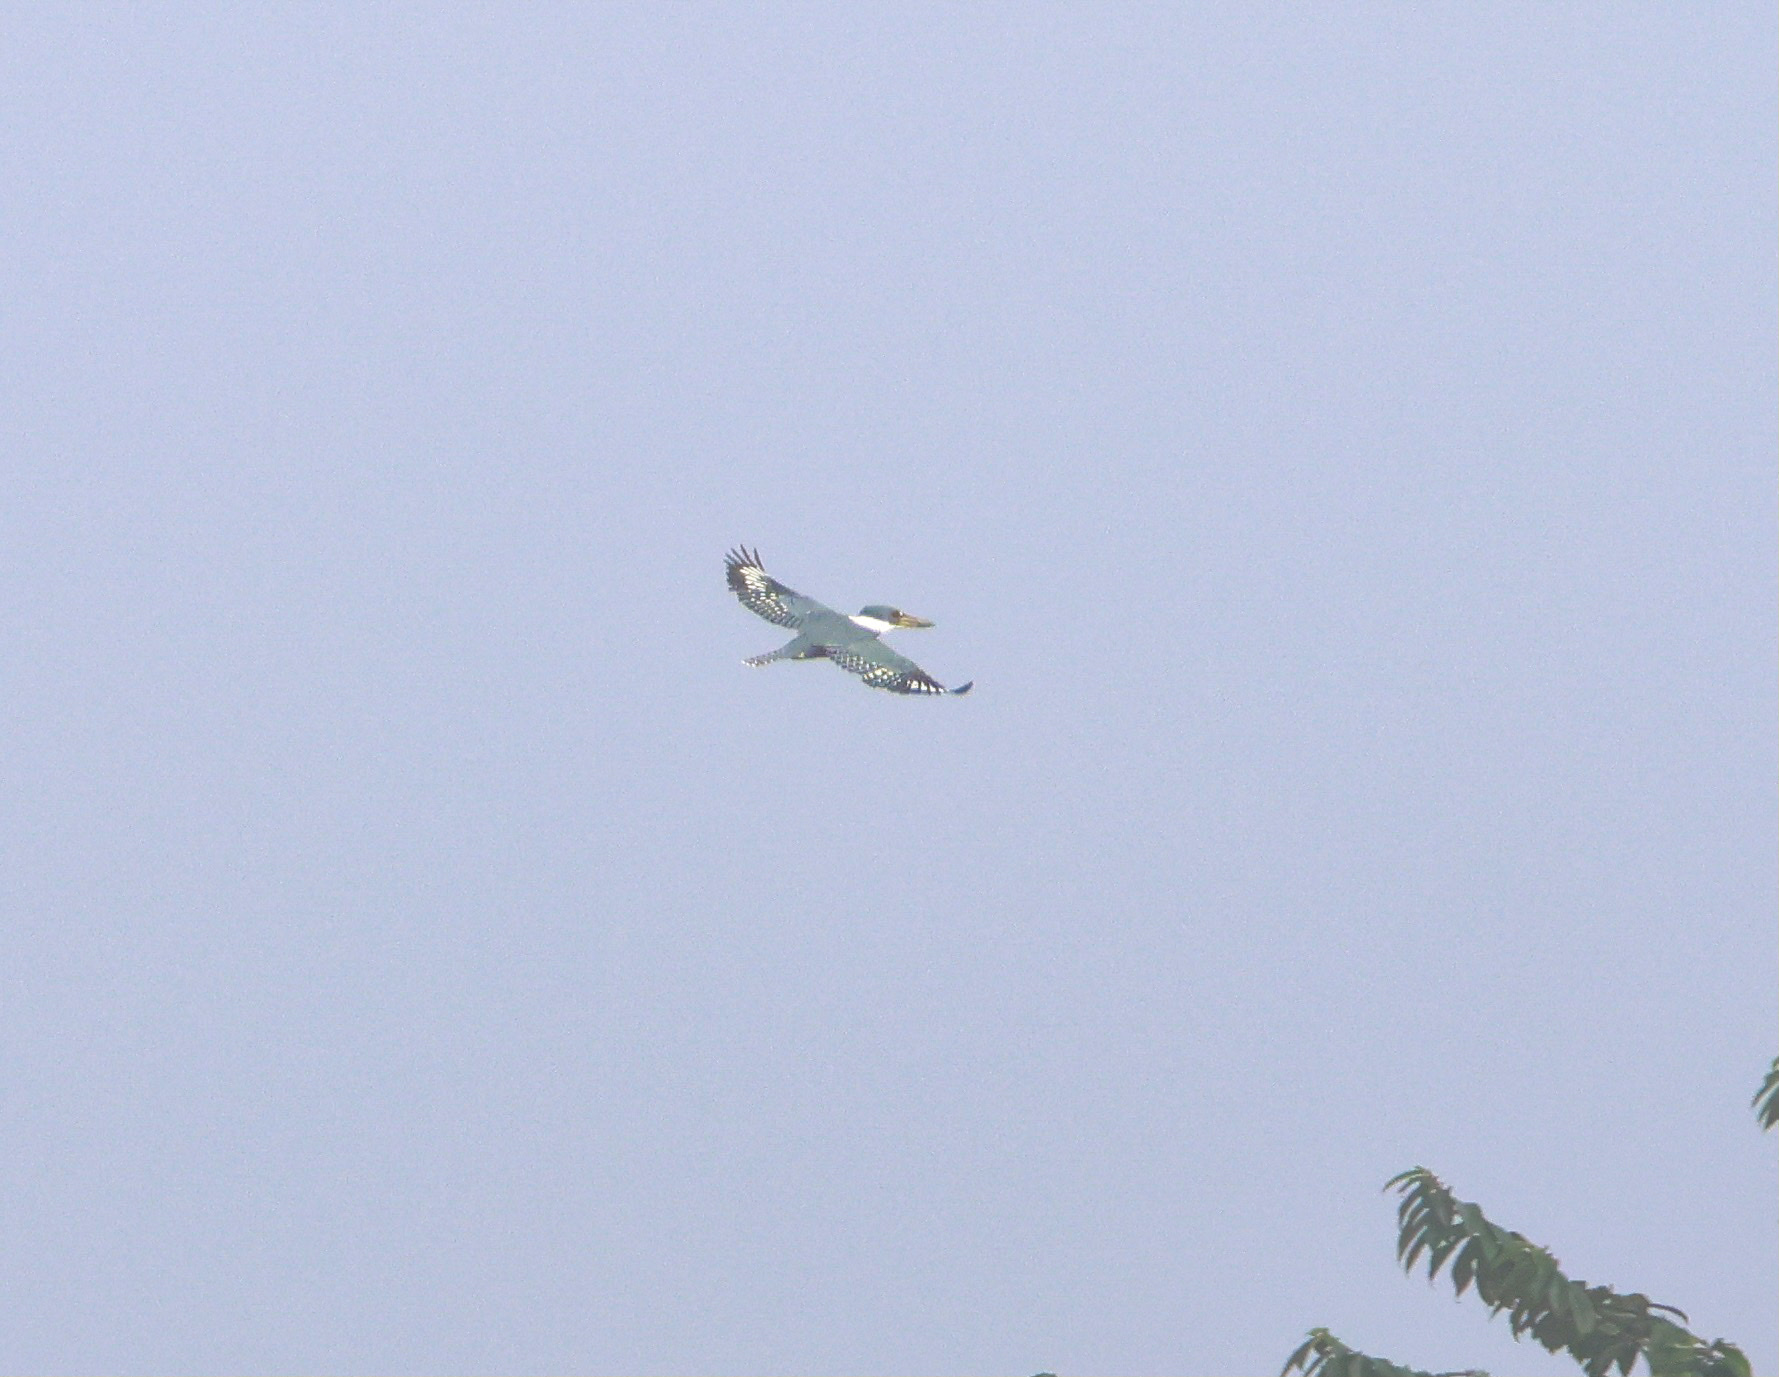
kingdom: Animalia
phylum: Chordata
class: Aves
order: Coraciiformes
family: Alcedinidae
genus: Megaceryle
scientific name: Megaceryle torquata
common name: Ringed kingfisher
